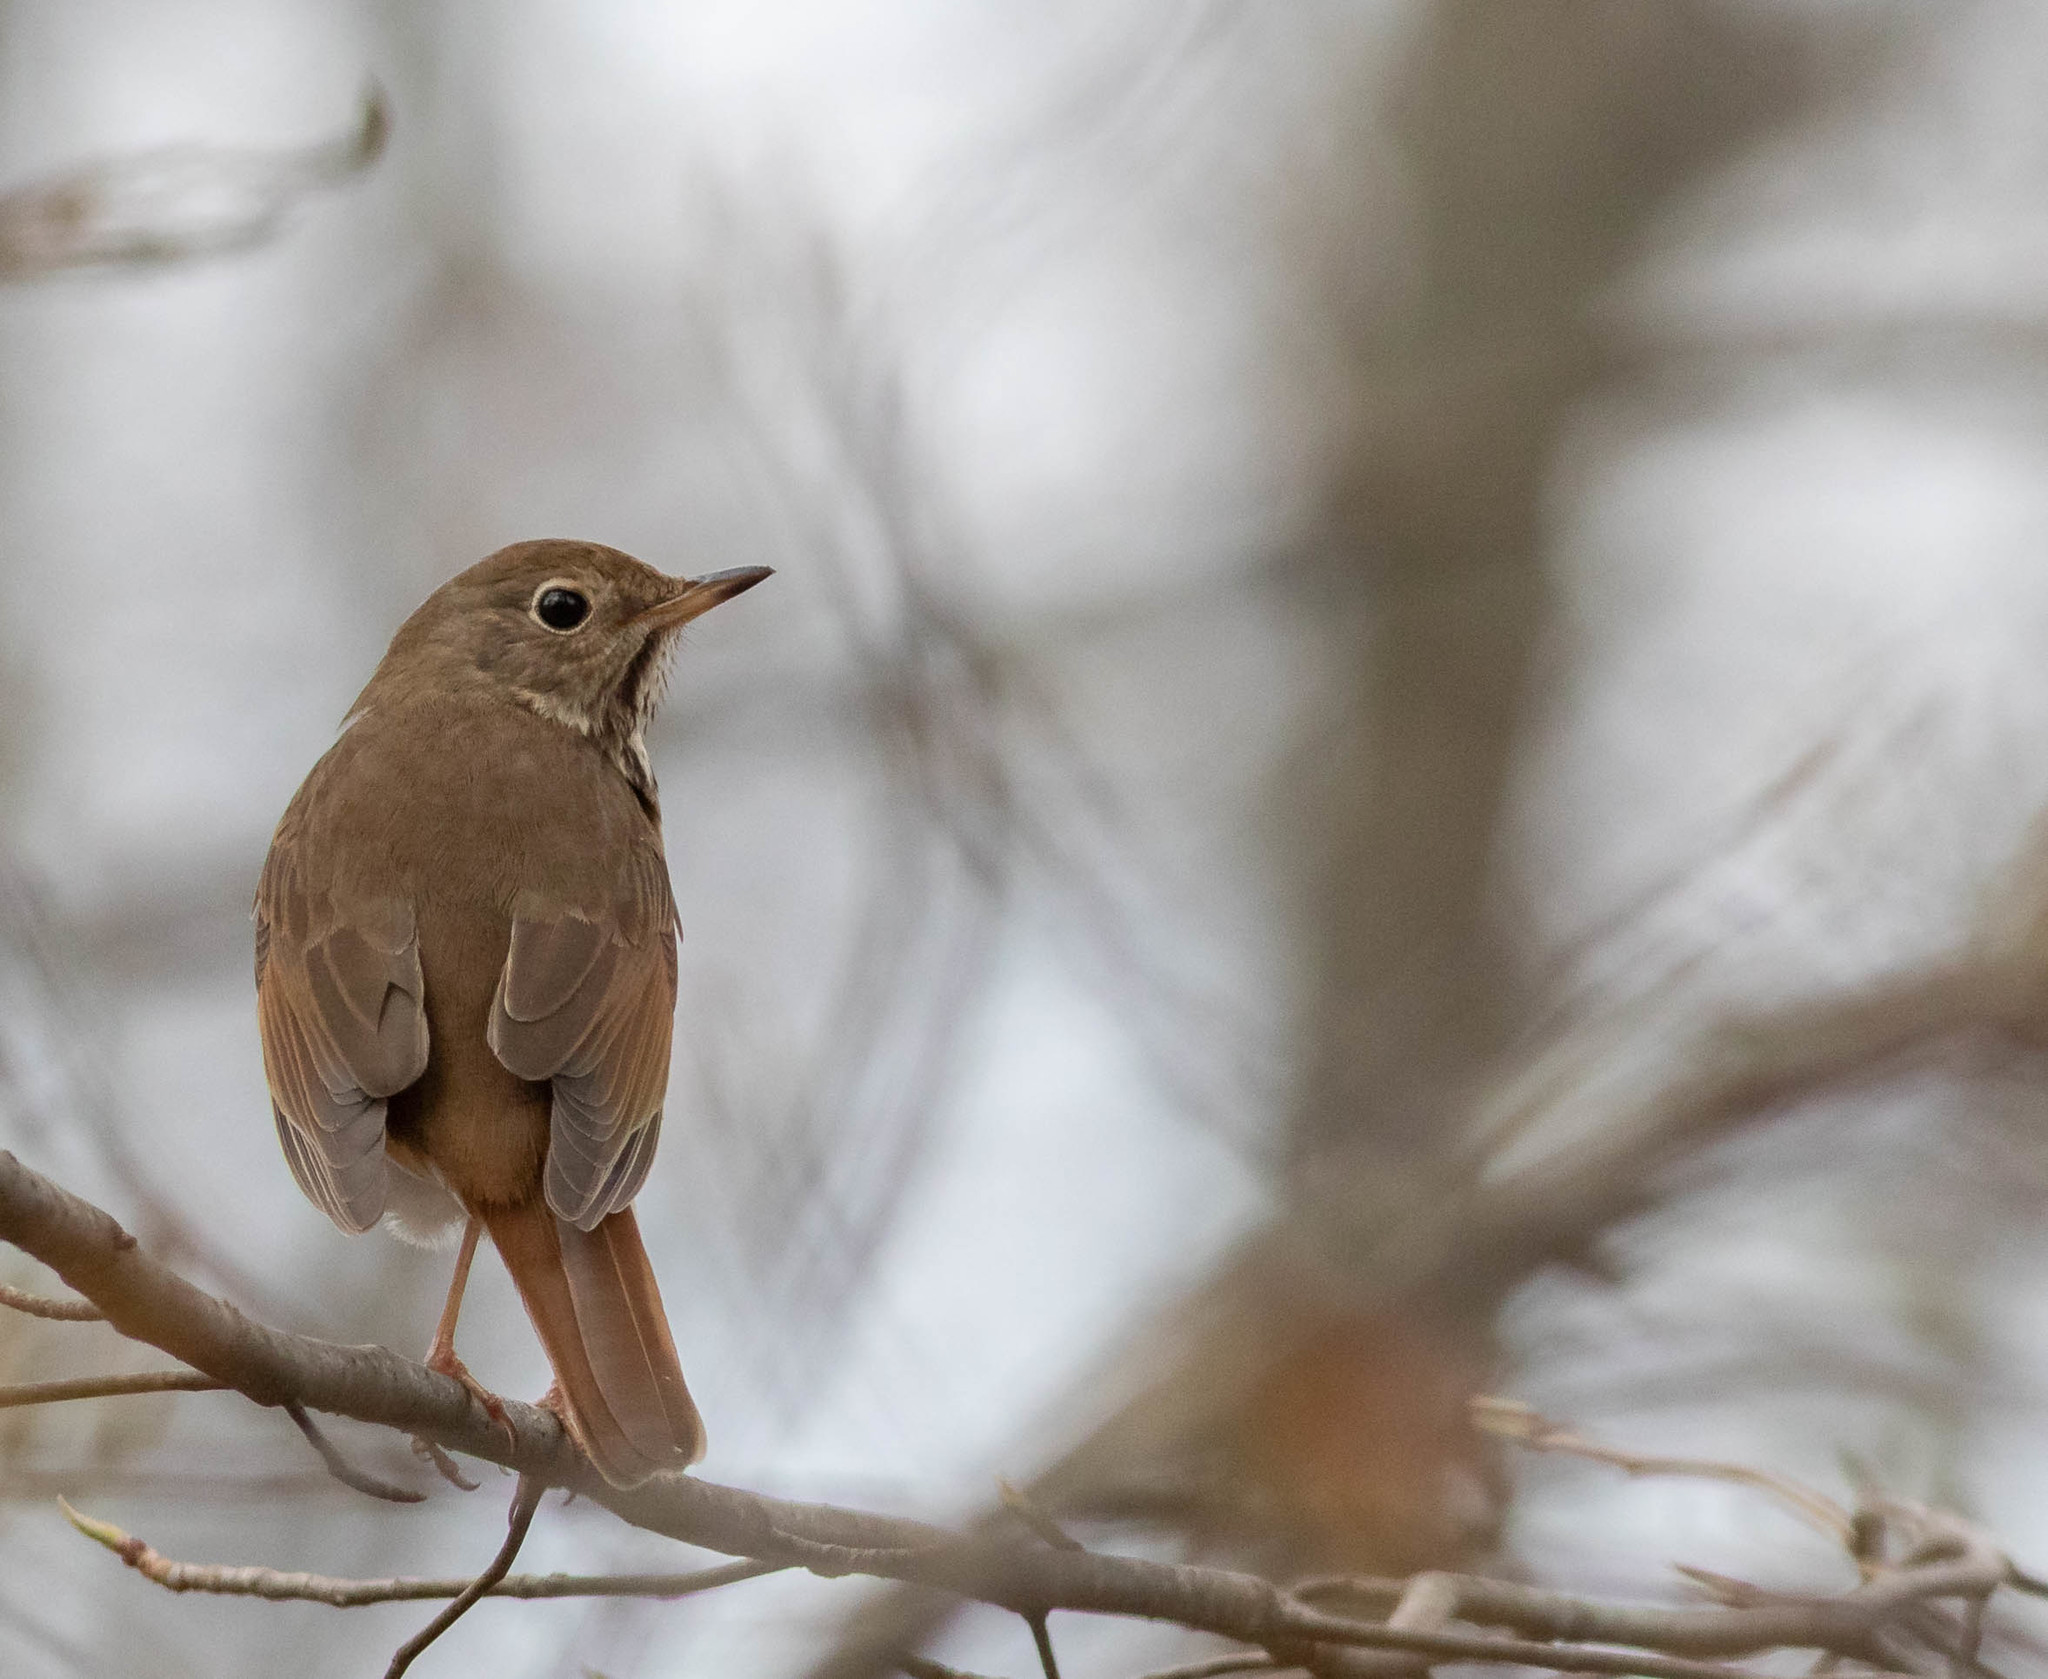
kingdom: Animalia
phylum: Chordata
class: Aves
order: Passeriformes
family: Turdidae
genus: Catharus
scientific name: Catharus guttatus
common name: Hermit thrush
